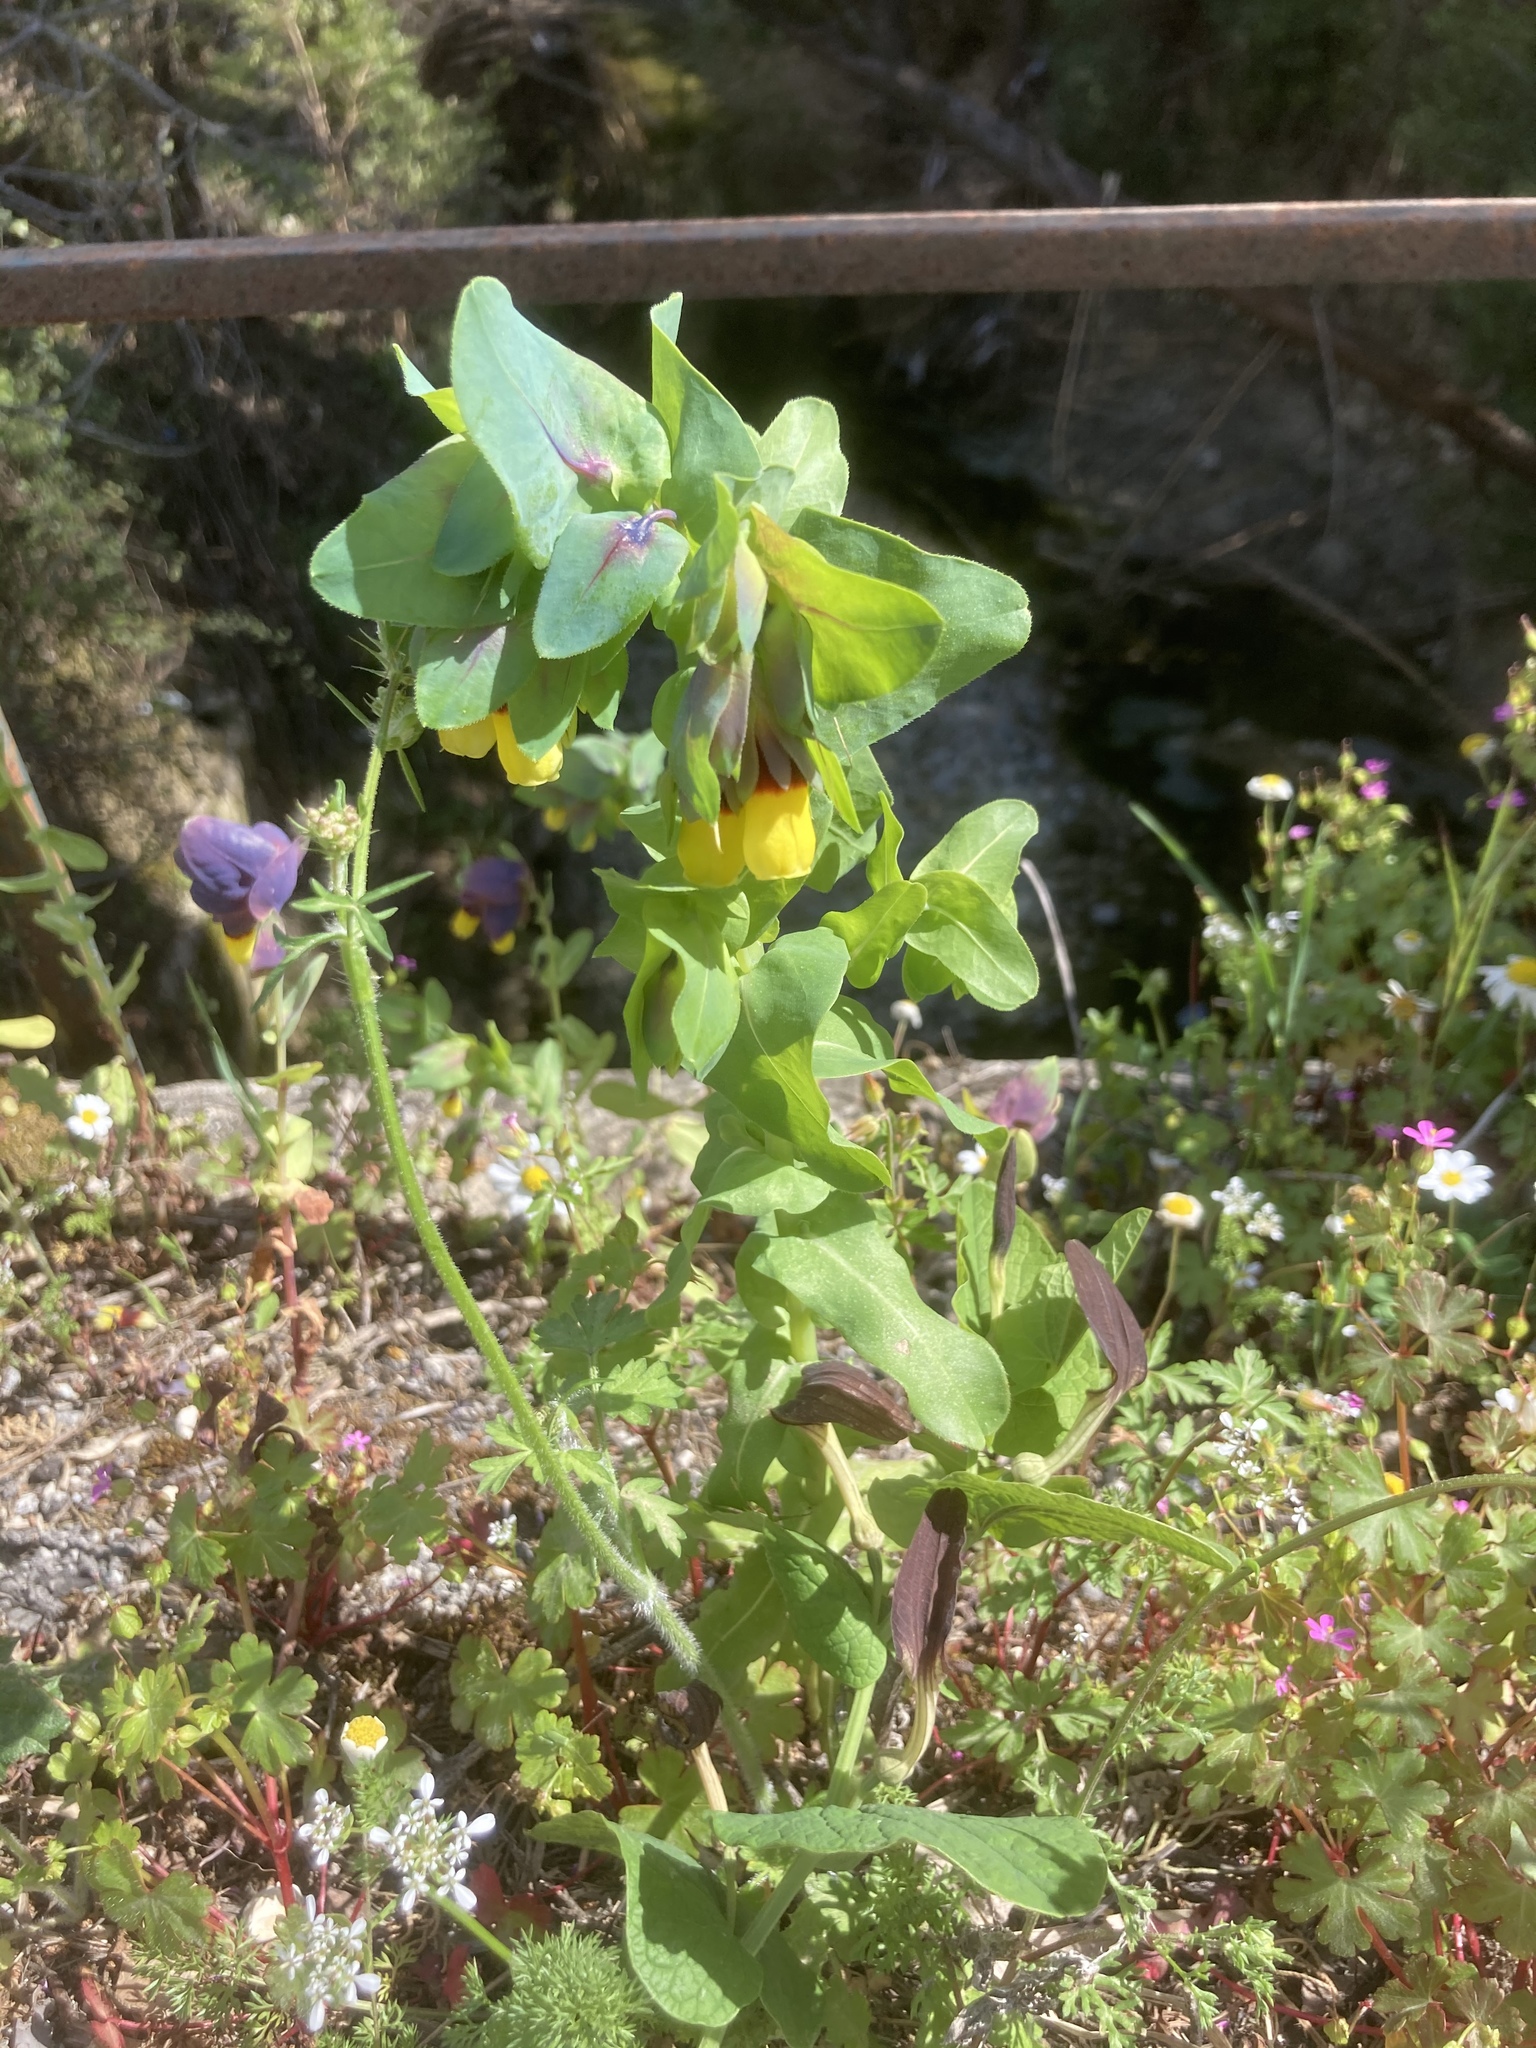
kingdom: Plantae
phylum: Tracheophyta
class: Magnoliopsida
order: Boraginales
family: Boraginaceae
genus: Cerinthe
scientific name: Cerinthe major
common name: Greater honeywort
